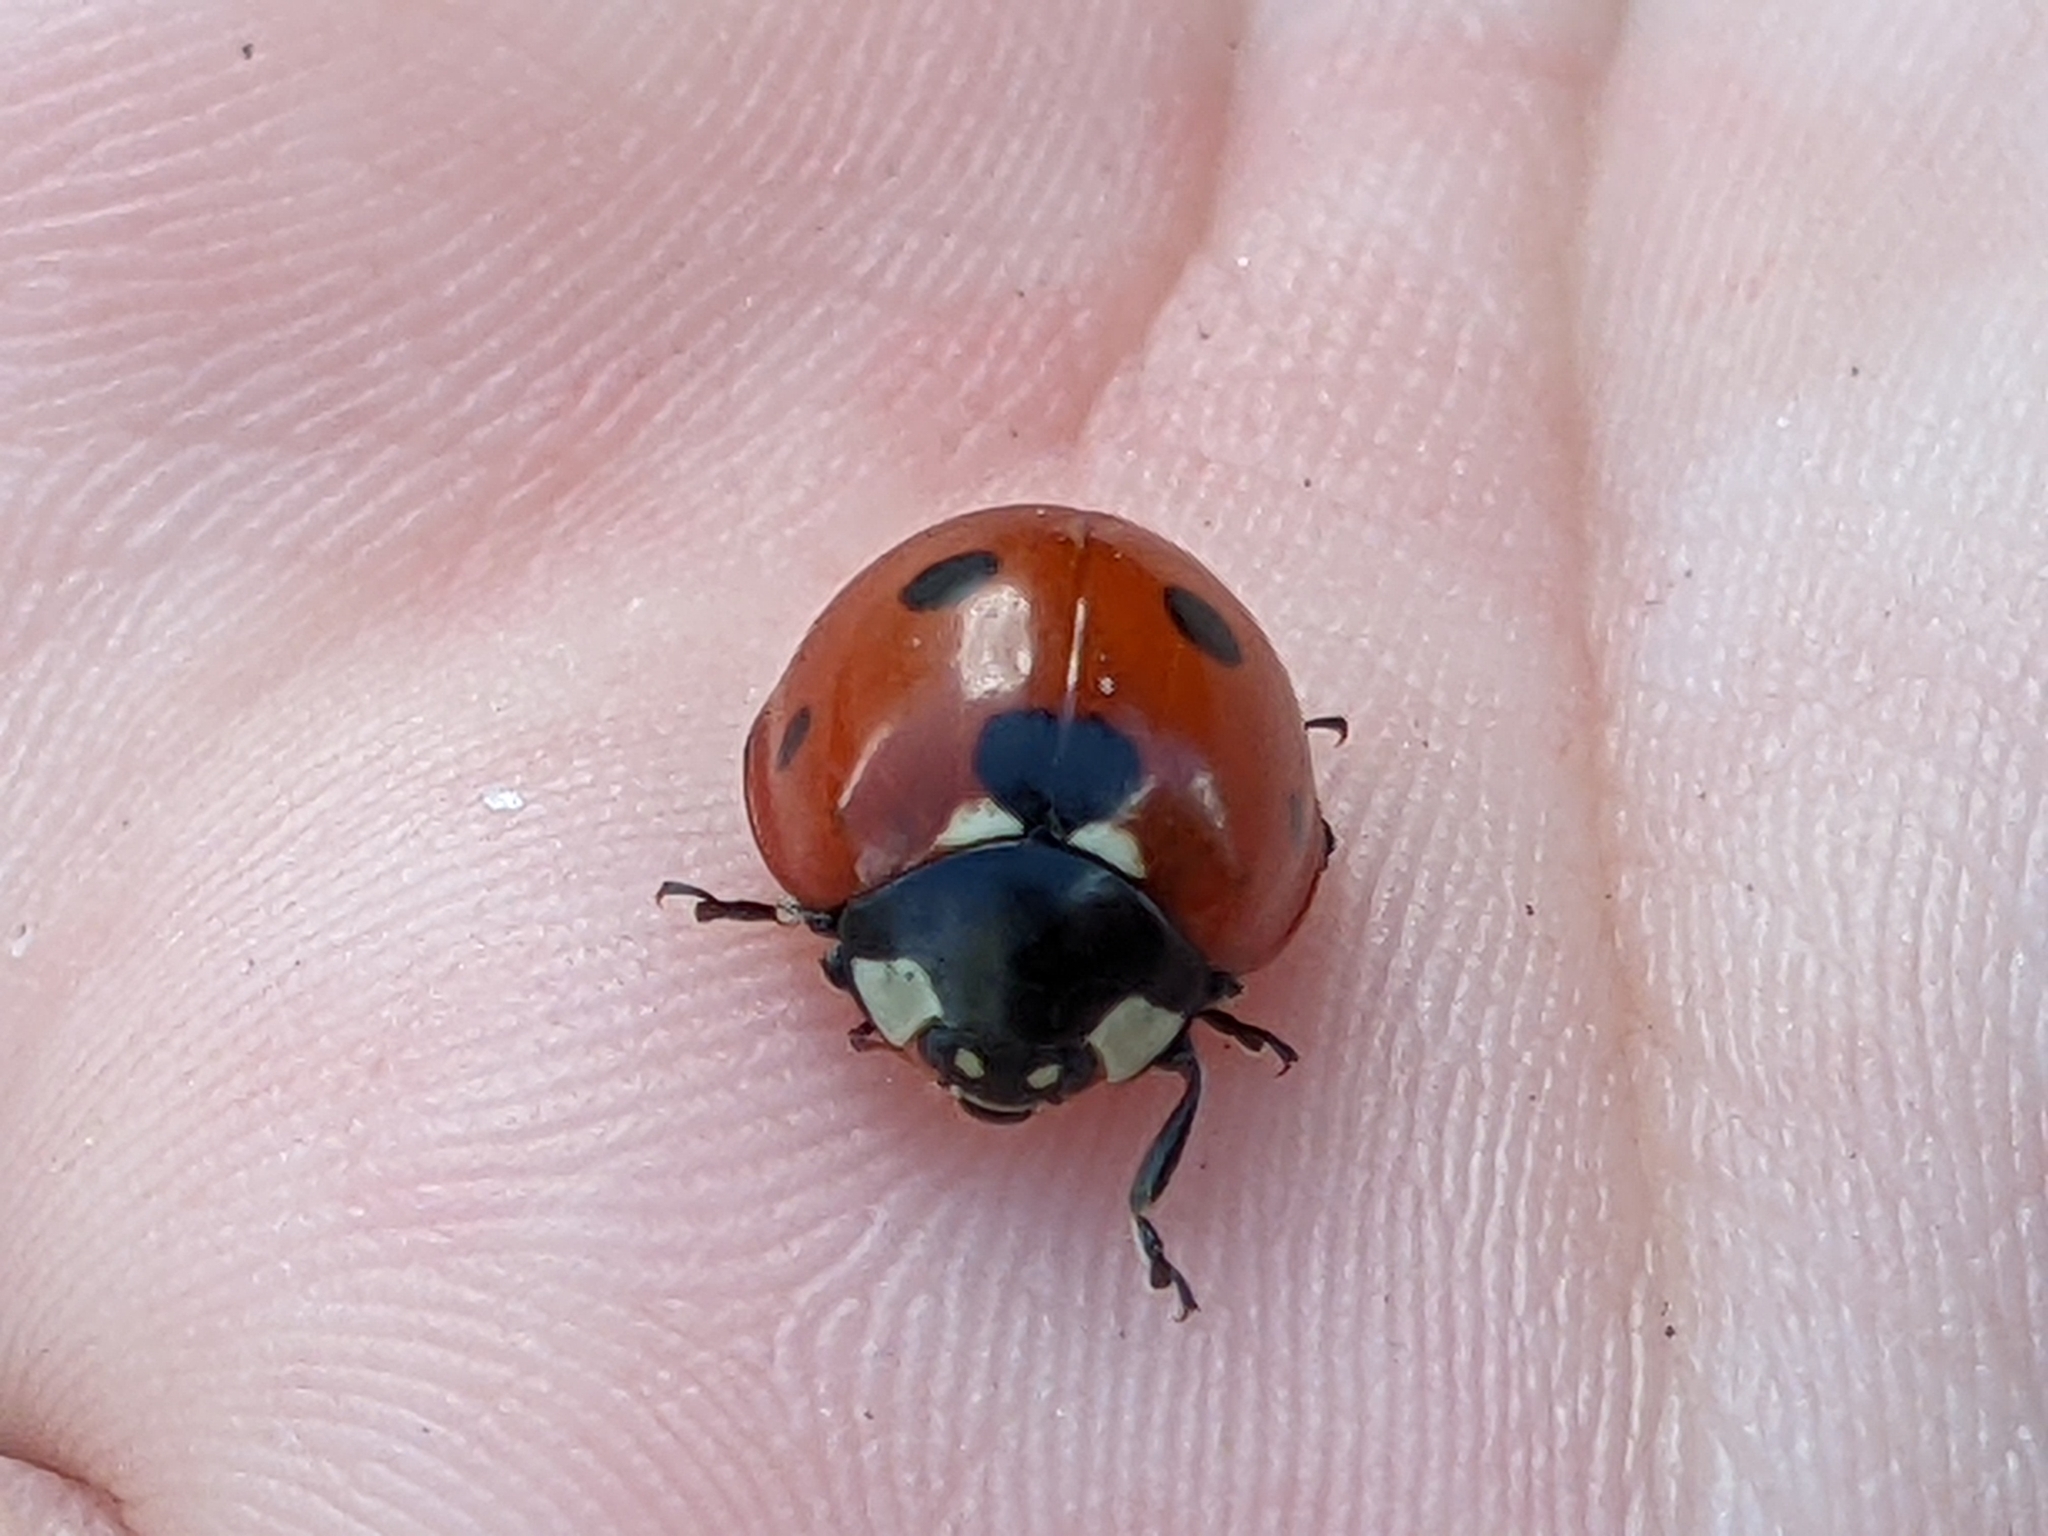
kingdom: Animalia
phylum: Arthropoda
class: Insecta
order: Coleoptera
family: Coccinellidae
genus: Coccinella
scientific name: Coccinella septempunctata
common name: Sevenspotted lady beetle
